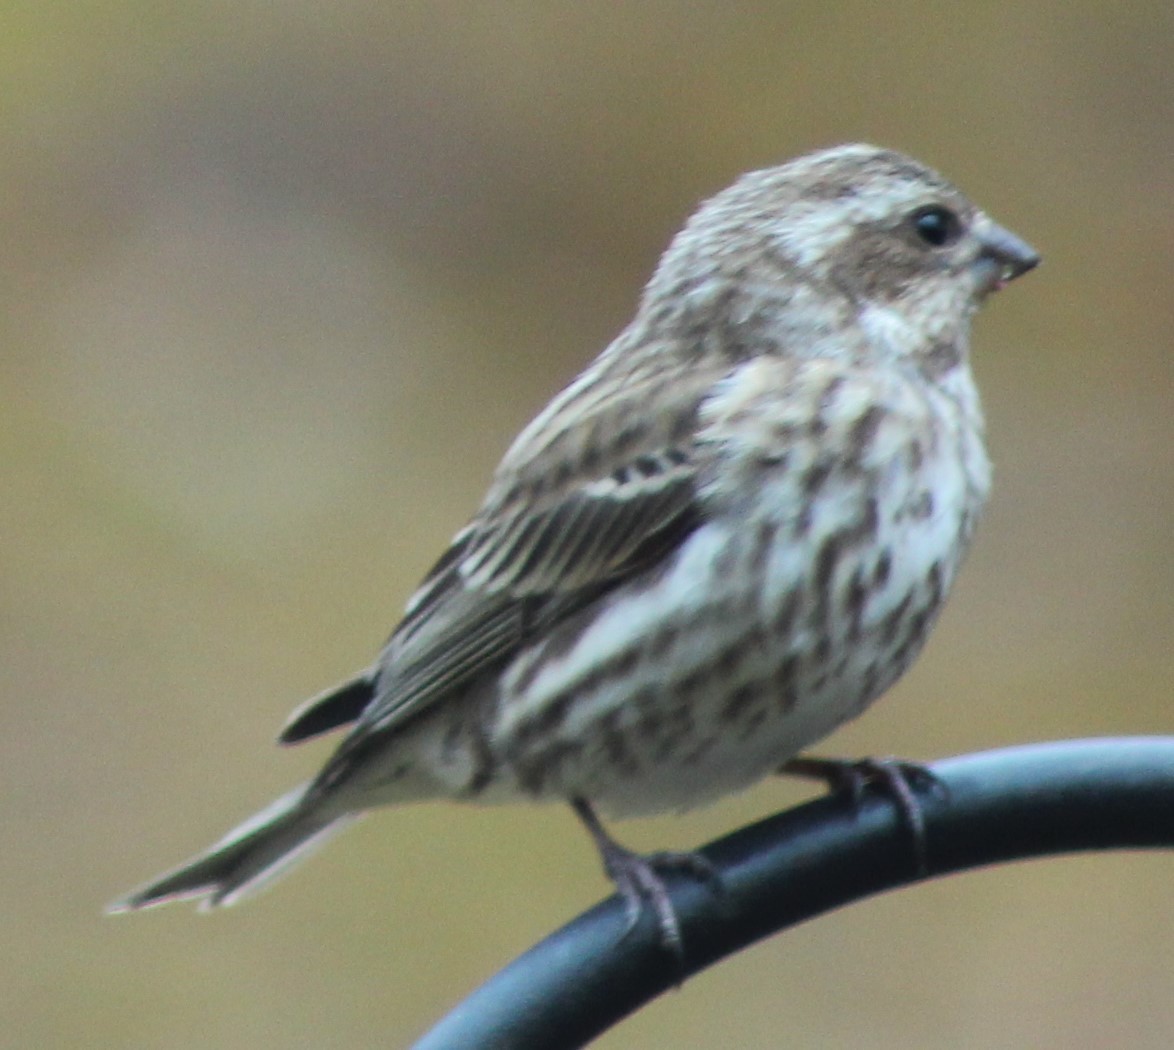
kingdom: Animalia
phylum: Chordata
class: Aves
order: Passeriformes
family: Fringillidae
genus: Haemorhous
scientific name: Haemorhous purpureus
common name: Purple finch
